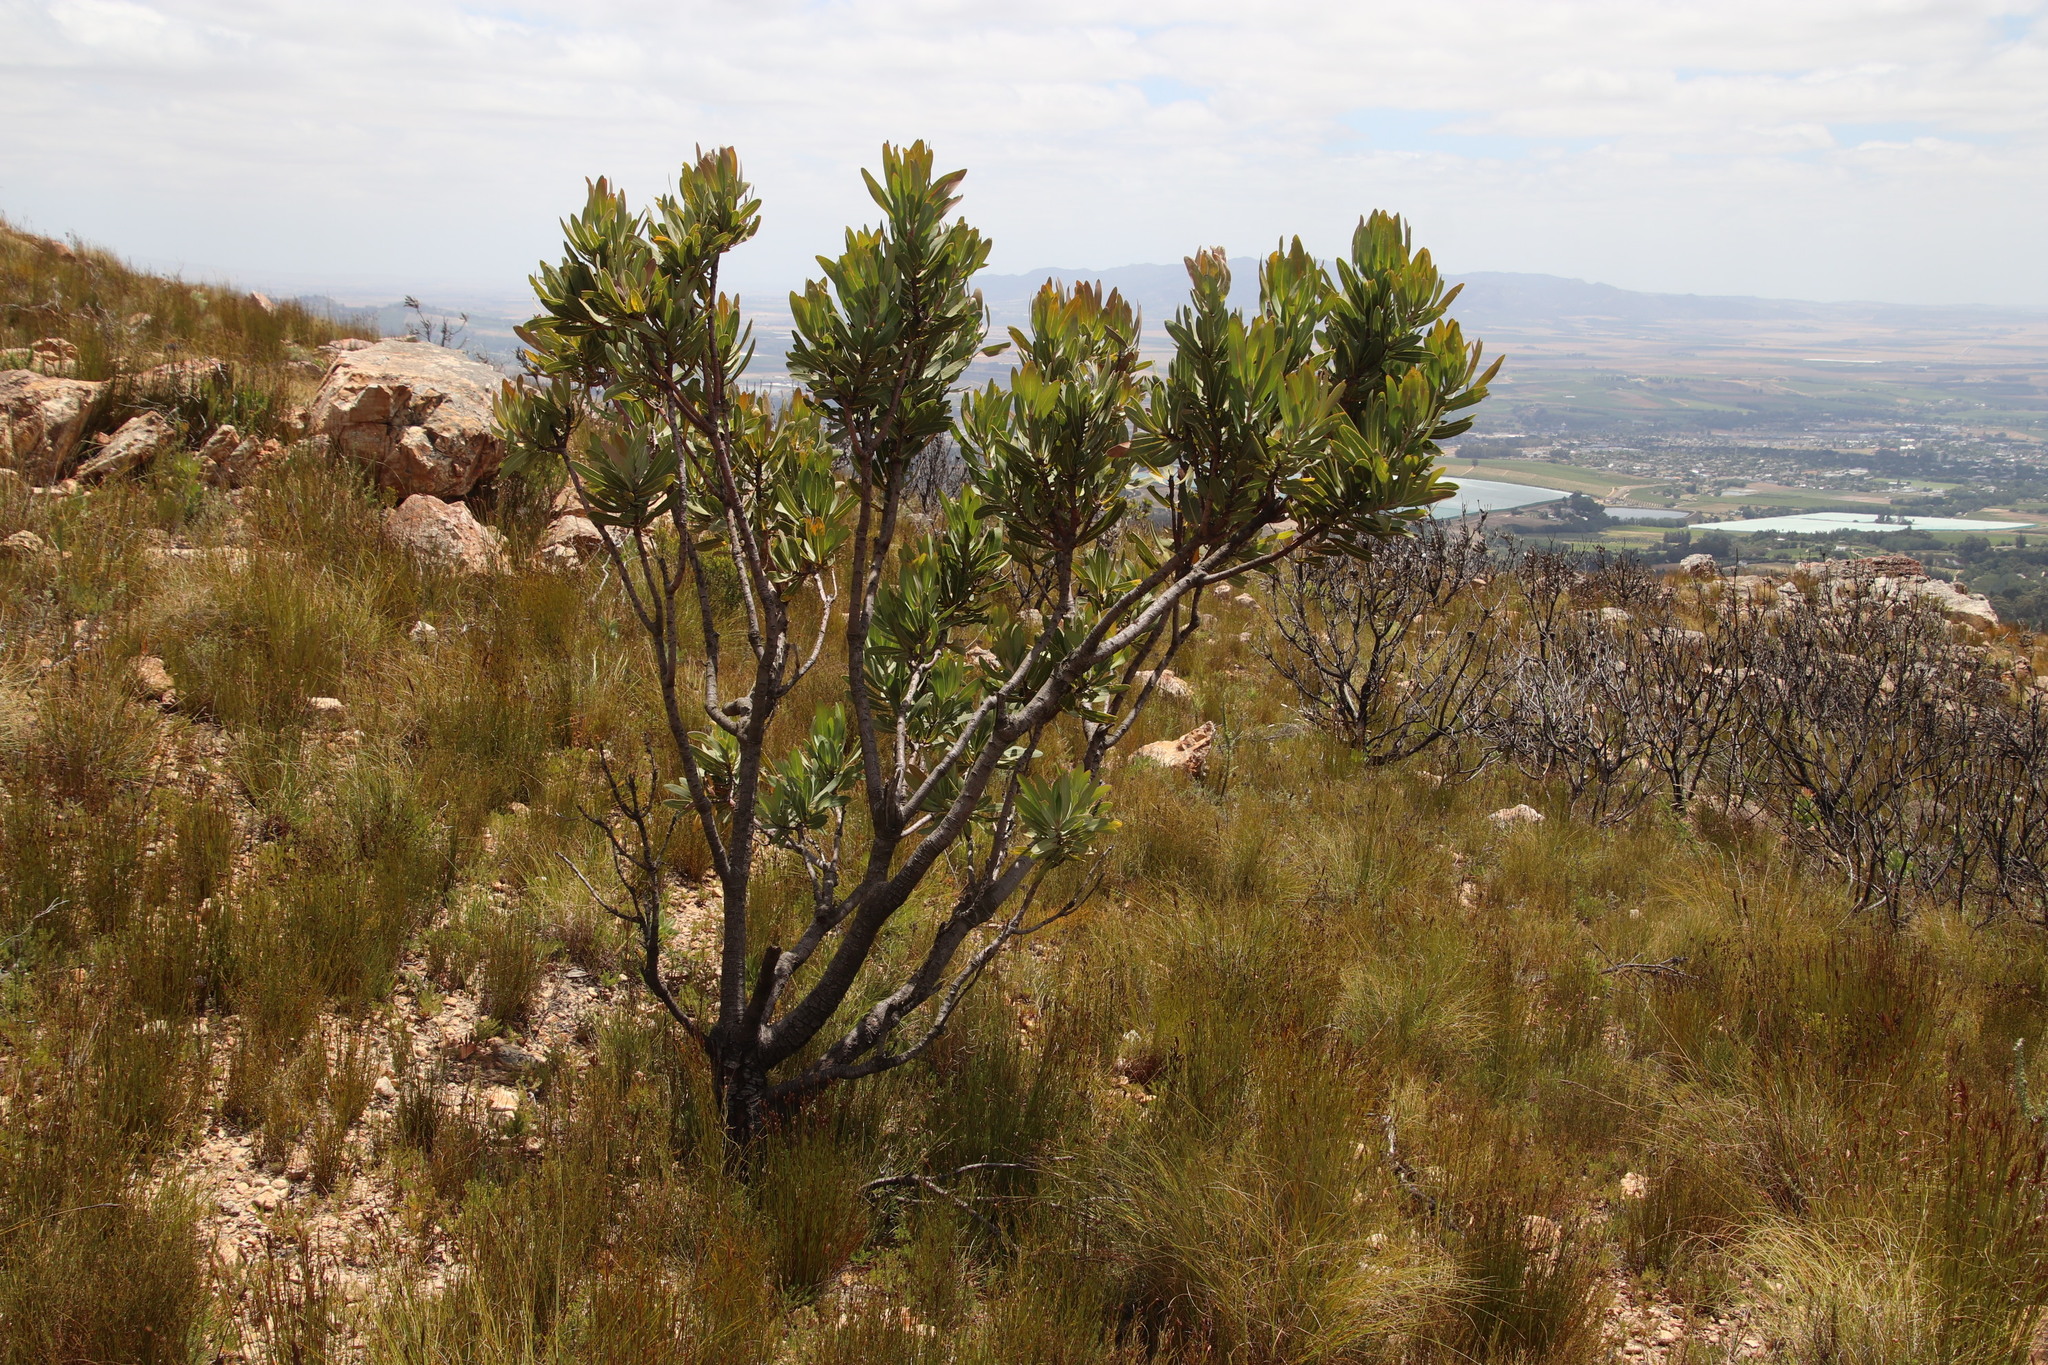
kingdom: Plantae
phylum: Tracheophyta
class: Magnoliopsida
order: Proteales
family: Proteaceae
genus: Protea
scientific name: Protea laurifolia
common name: Grey-leaf sugarbsh
